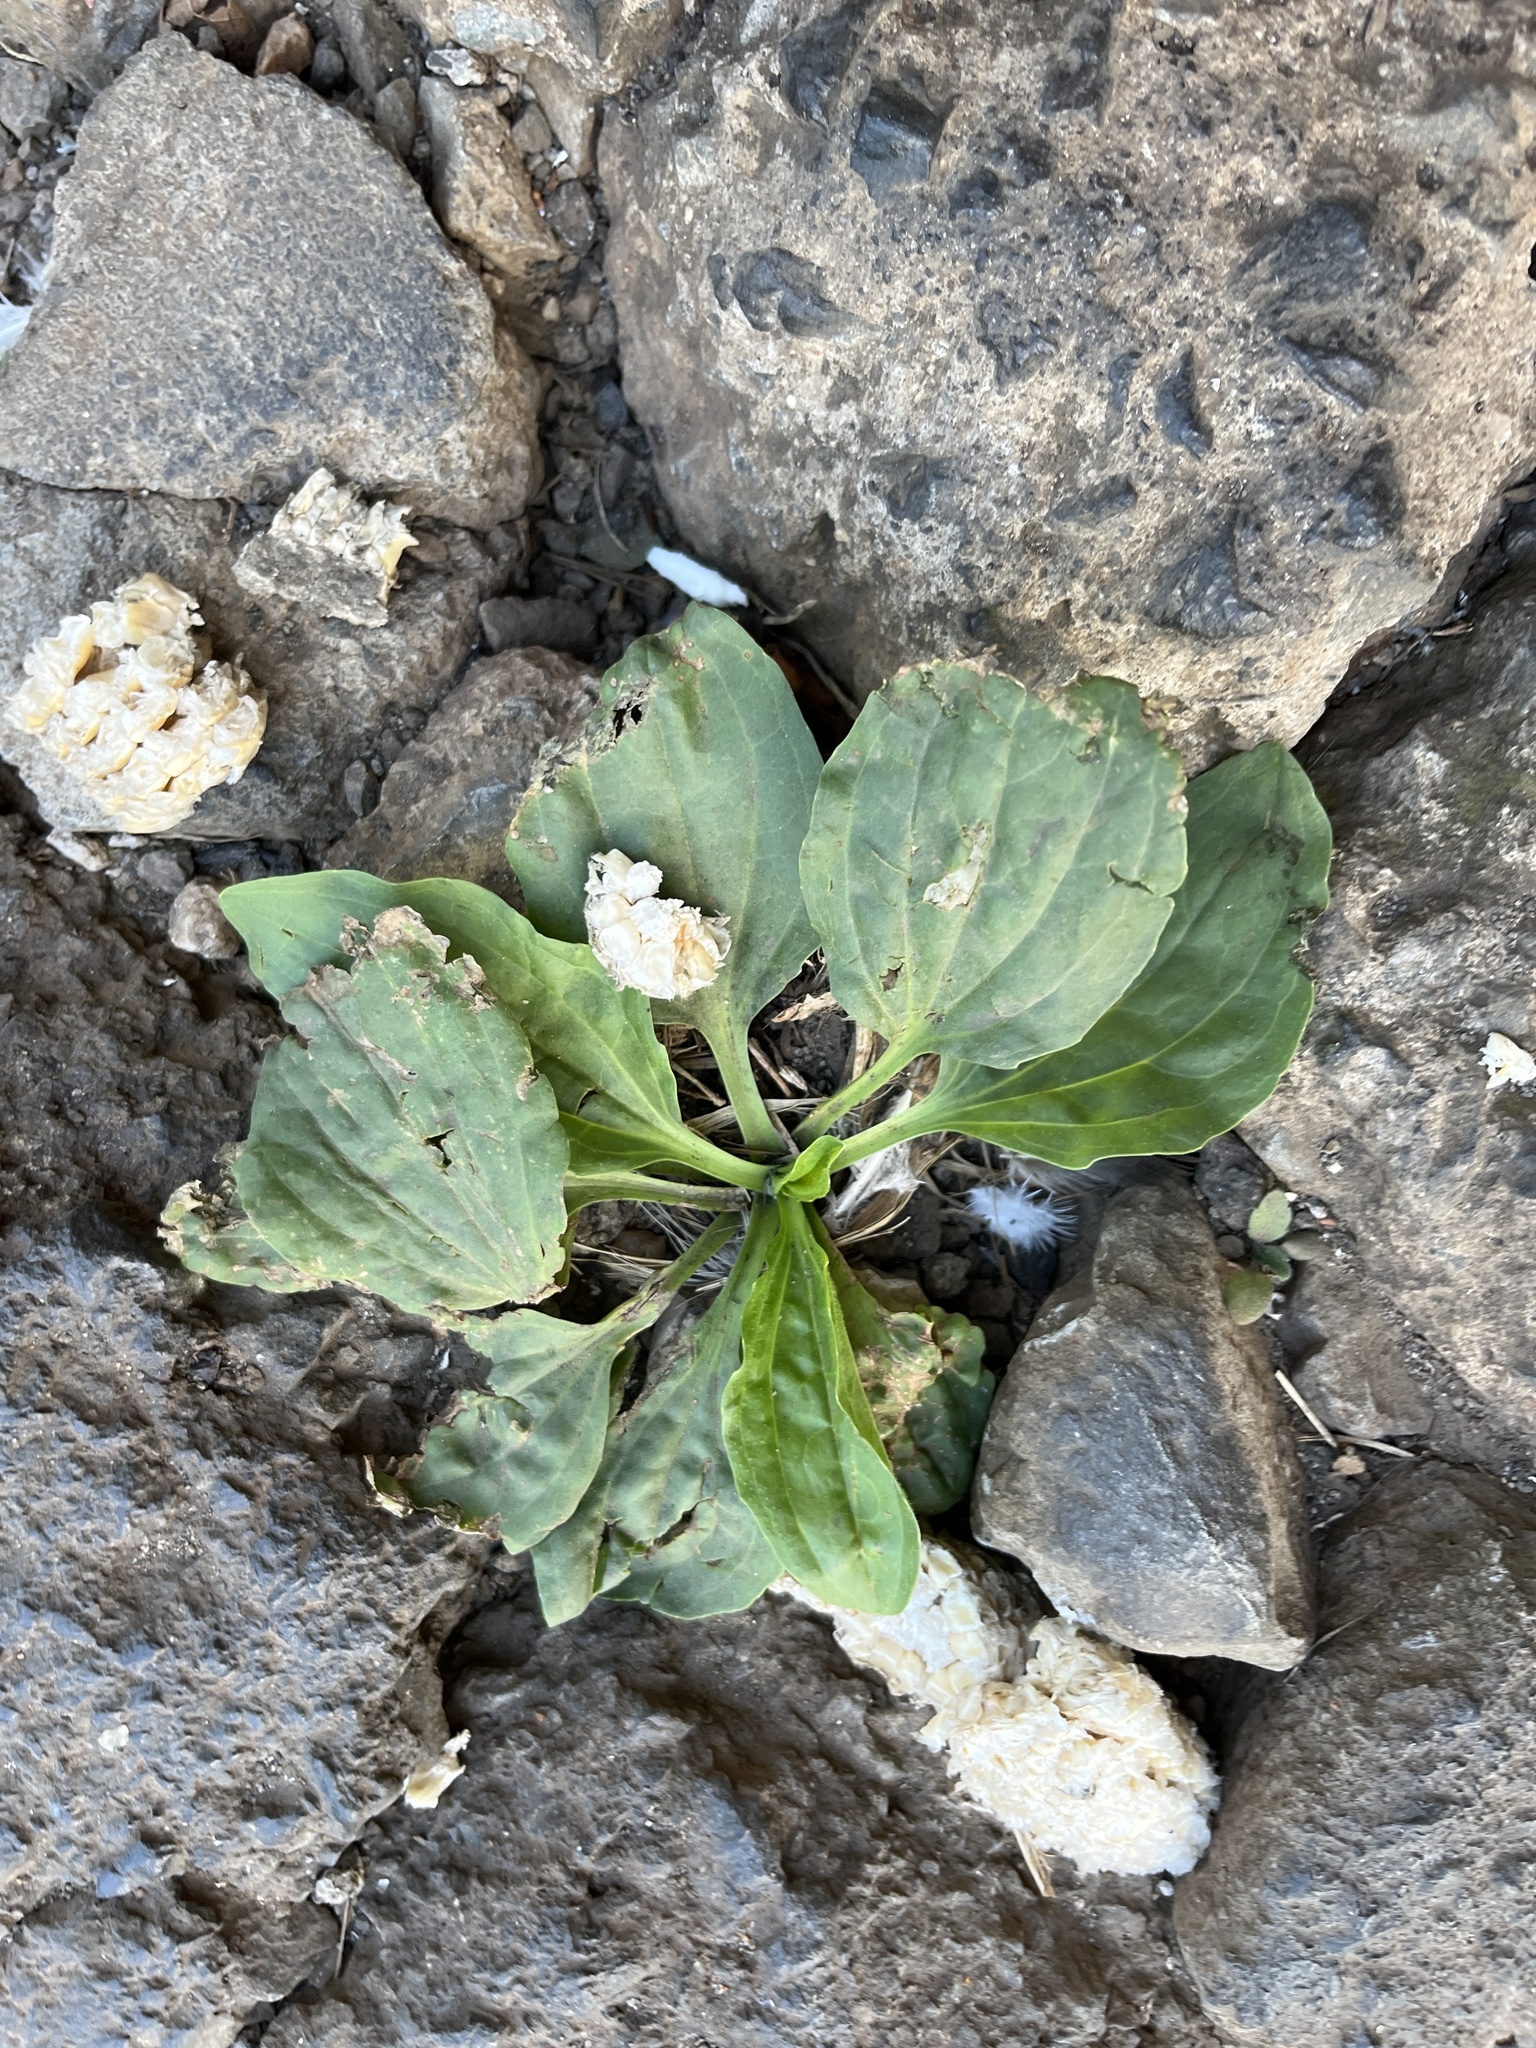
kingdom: Plantae
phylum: Tracheophyta
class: Magnoliopsida
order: Lamiales
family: Plantaginaceae
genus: Plantago
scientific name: Plantago major
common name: Common plantain
